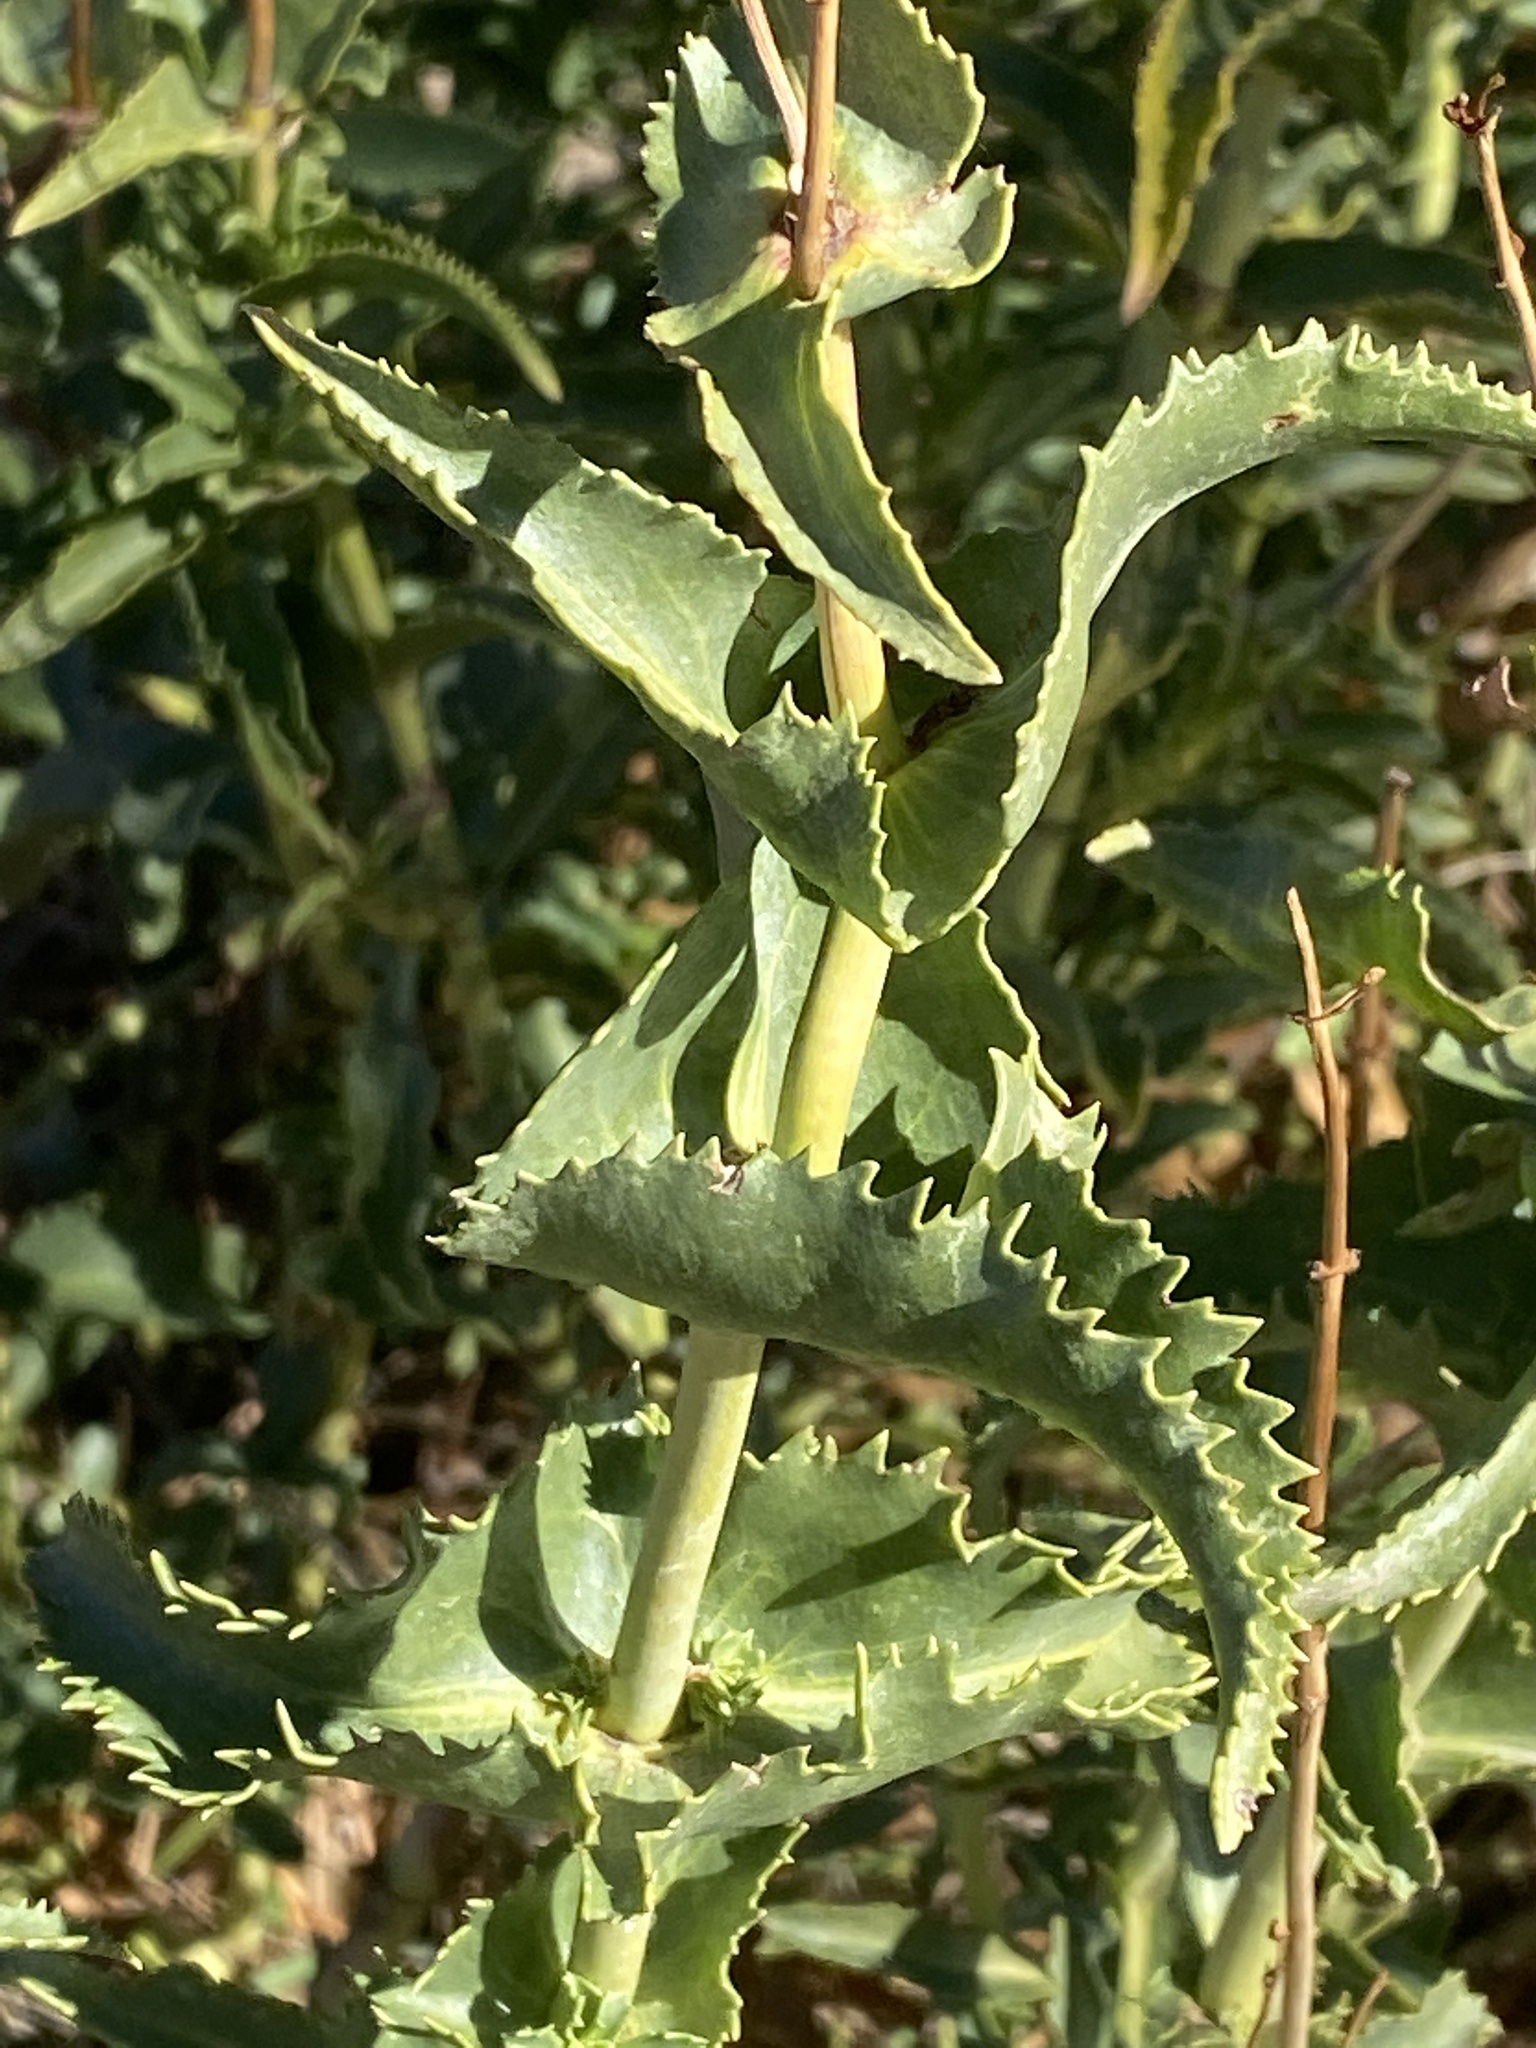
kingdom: Plantae
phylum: Tracheophyta
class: Magnoliopsida
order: Lamiales
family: Plantaginaceae
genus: Penstemon
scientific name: Penstemon spectabilis
